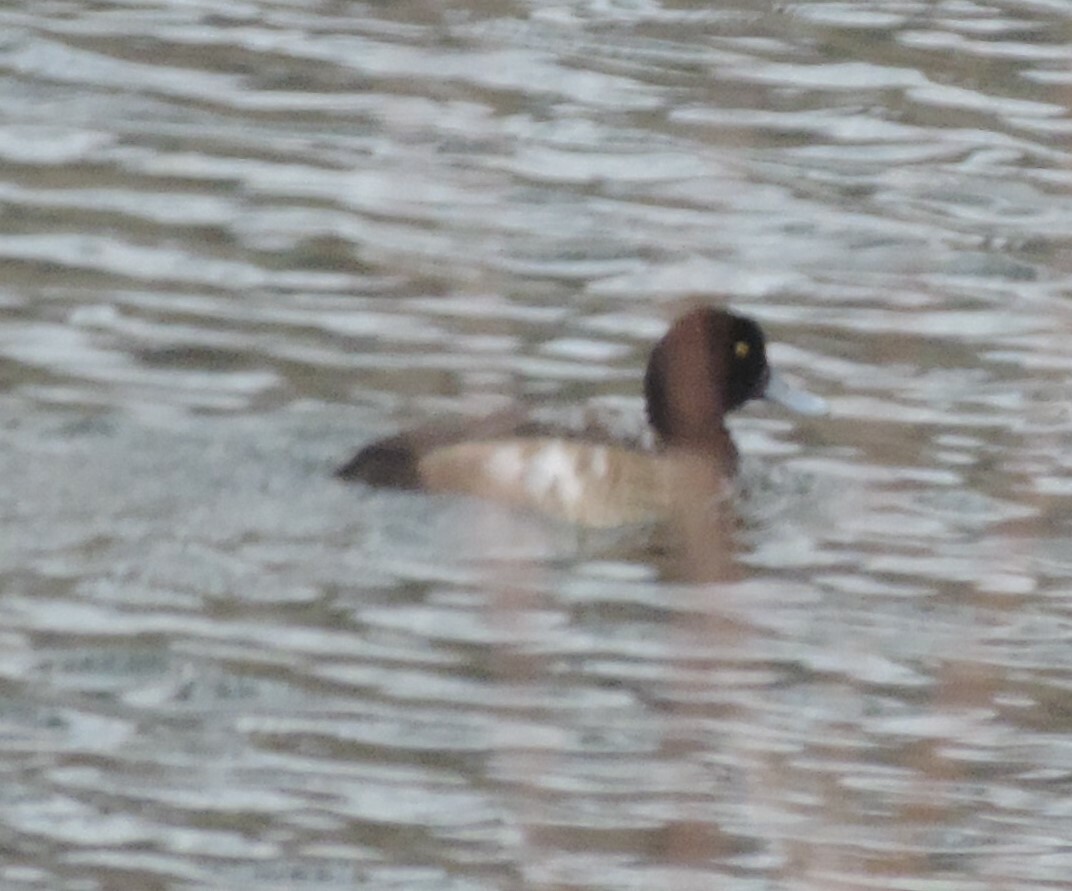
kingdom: Animalia
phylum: Chordata
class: Aves
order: Anseriformes
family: Anatidae
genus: Aythya
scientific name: Aythya marila
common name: Greater scaup
